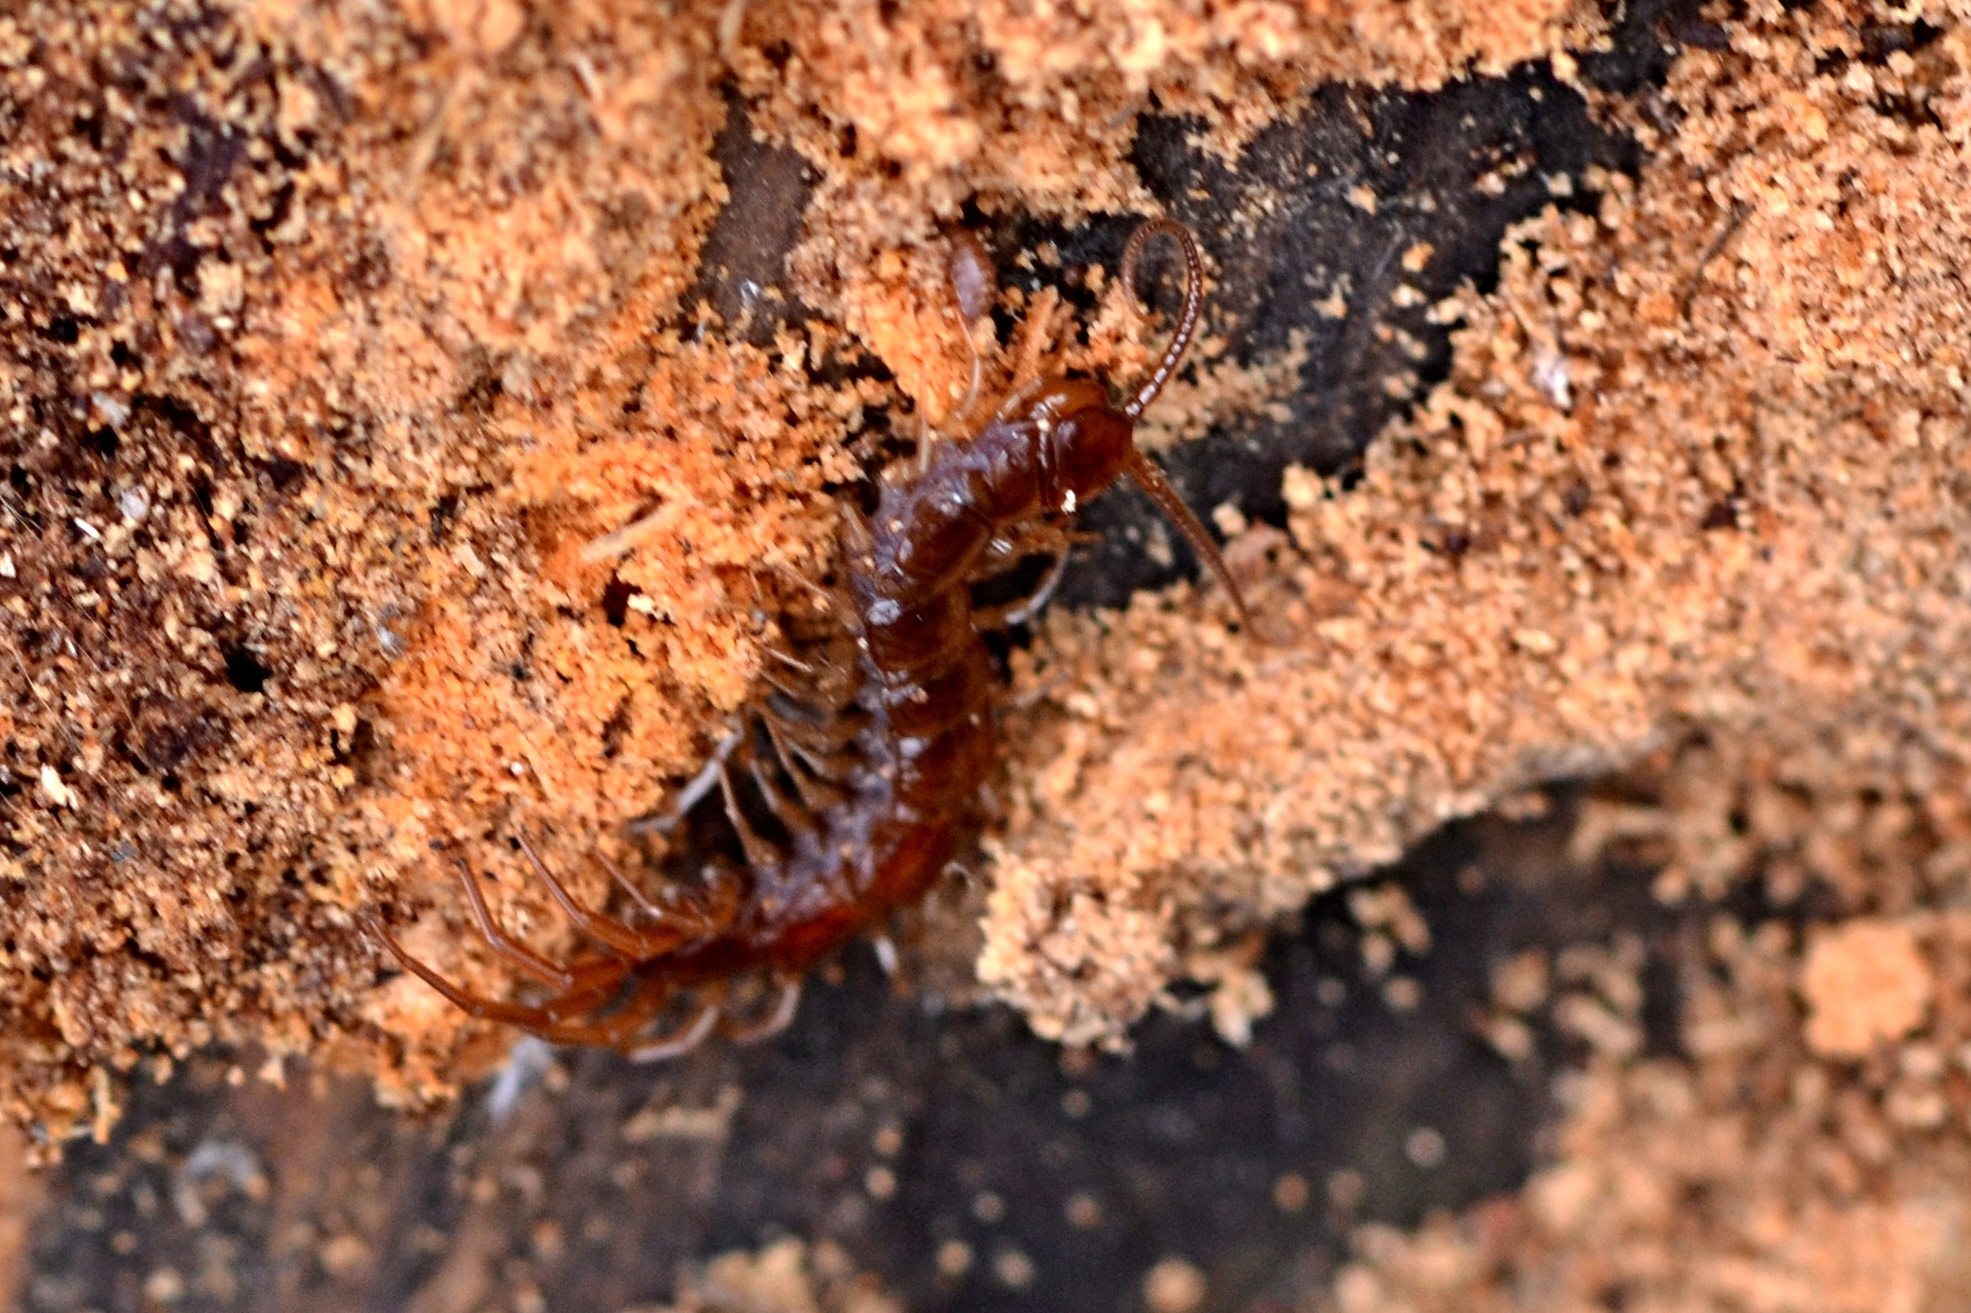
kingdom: Animalia
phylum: Arthropoda
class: Chilopoda
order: Lithobiomorpha
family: Lithobiidae
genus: Lithobius
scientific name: Lithobius forficatus
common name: Centipede
